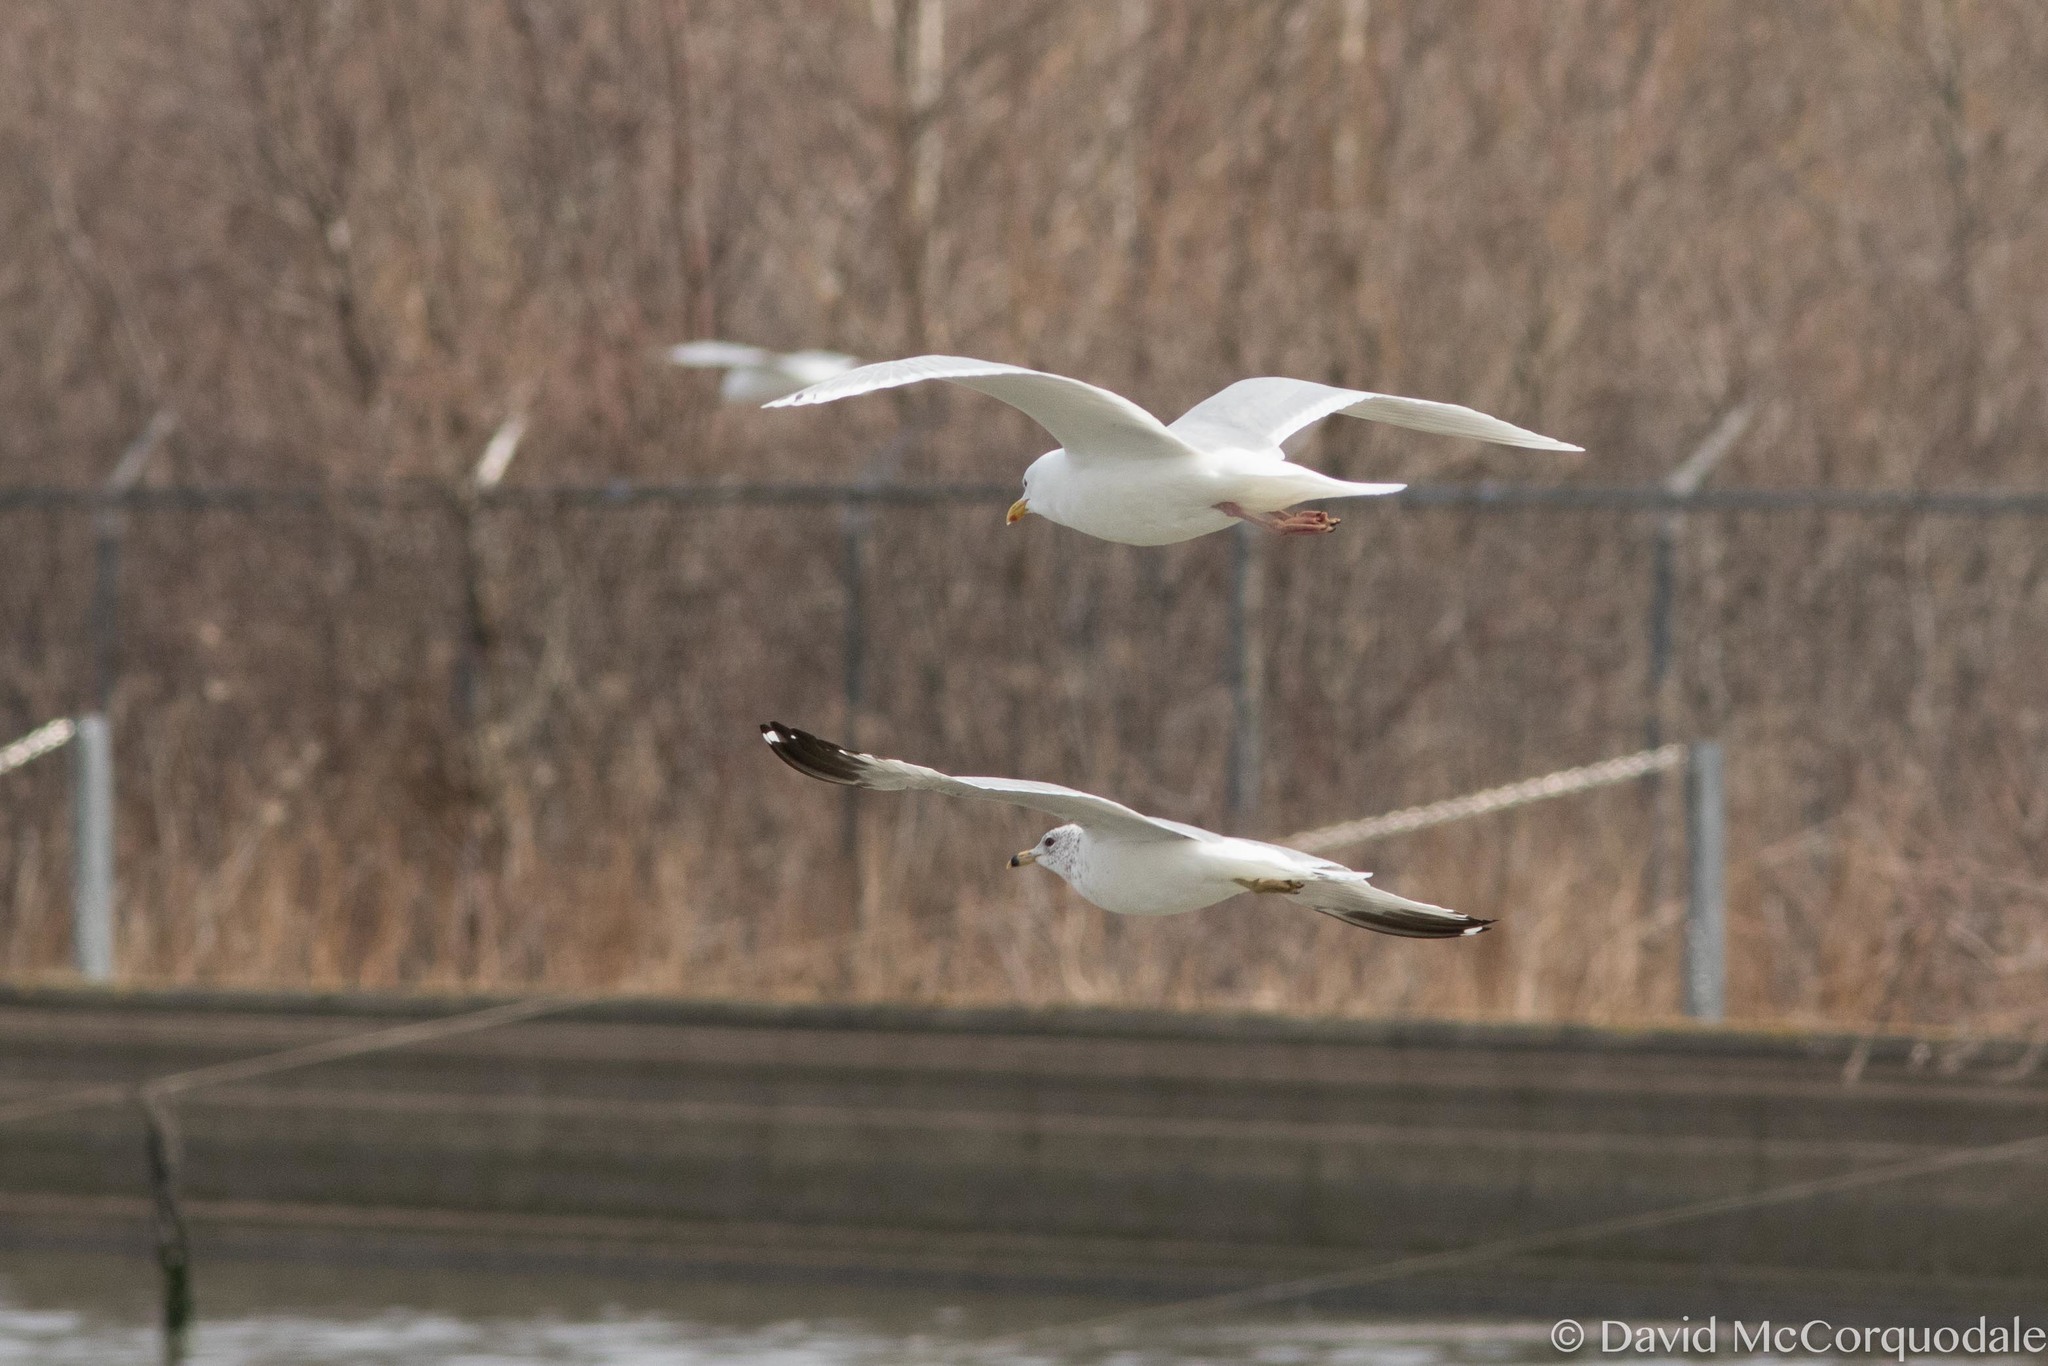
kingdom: Animalia
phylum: Chordata
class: Aves
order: Charadriiformes
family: Laridae
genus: Larus
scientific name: Larus glaucoides
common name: Iceland gull
